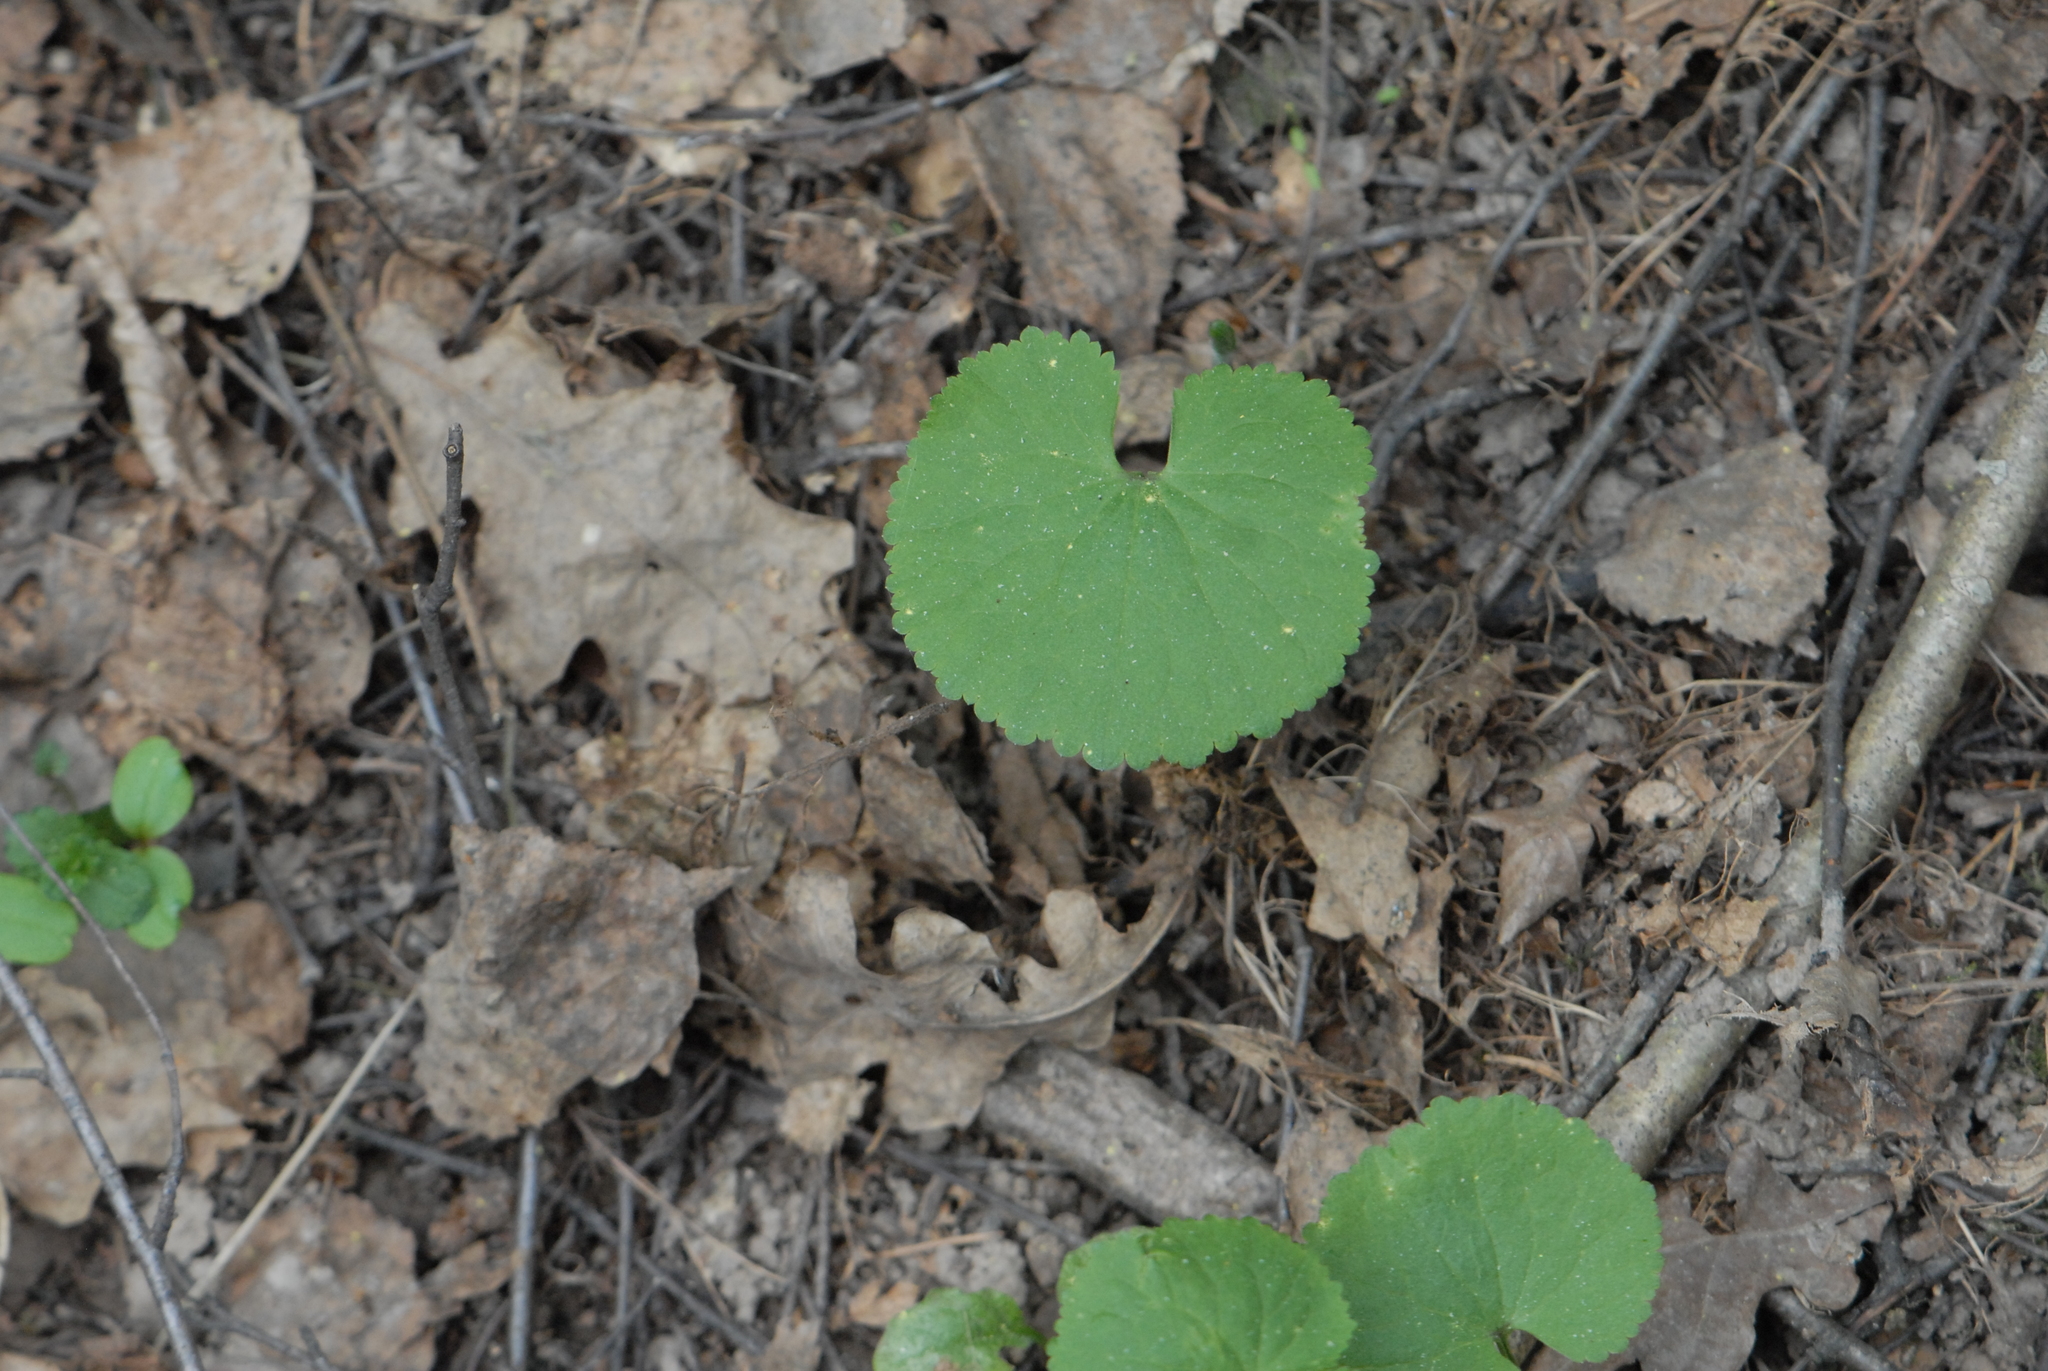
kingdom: Plantae
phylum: Tracheophyta
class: Magnoliopsida
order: Ranunculales
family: Ranunculaceae
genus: Ranunculus
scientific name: Ranunculus cassubicus
